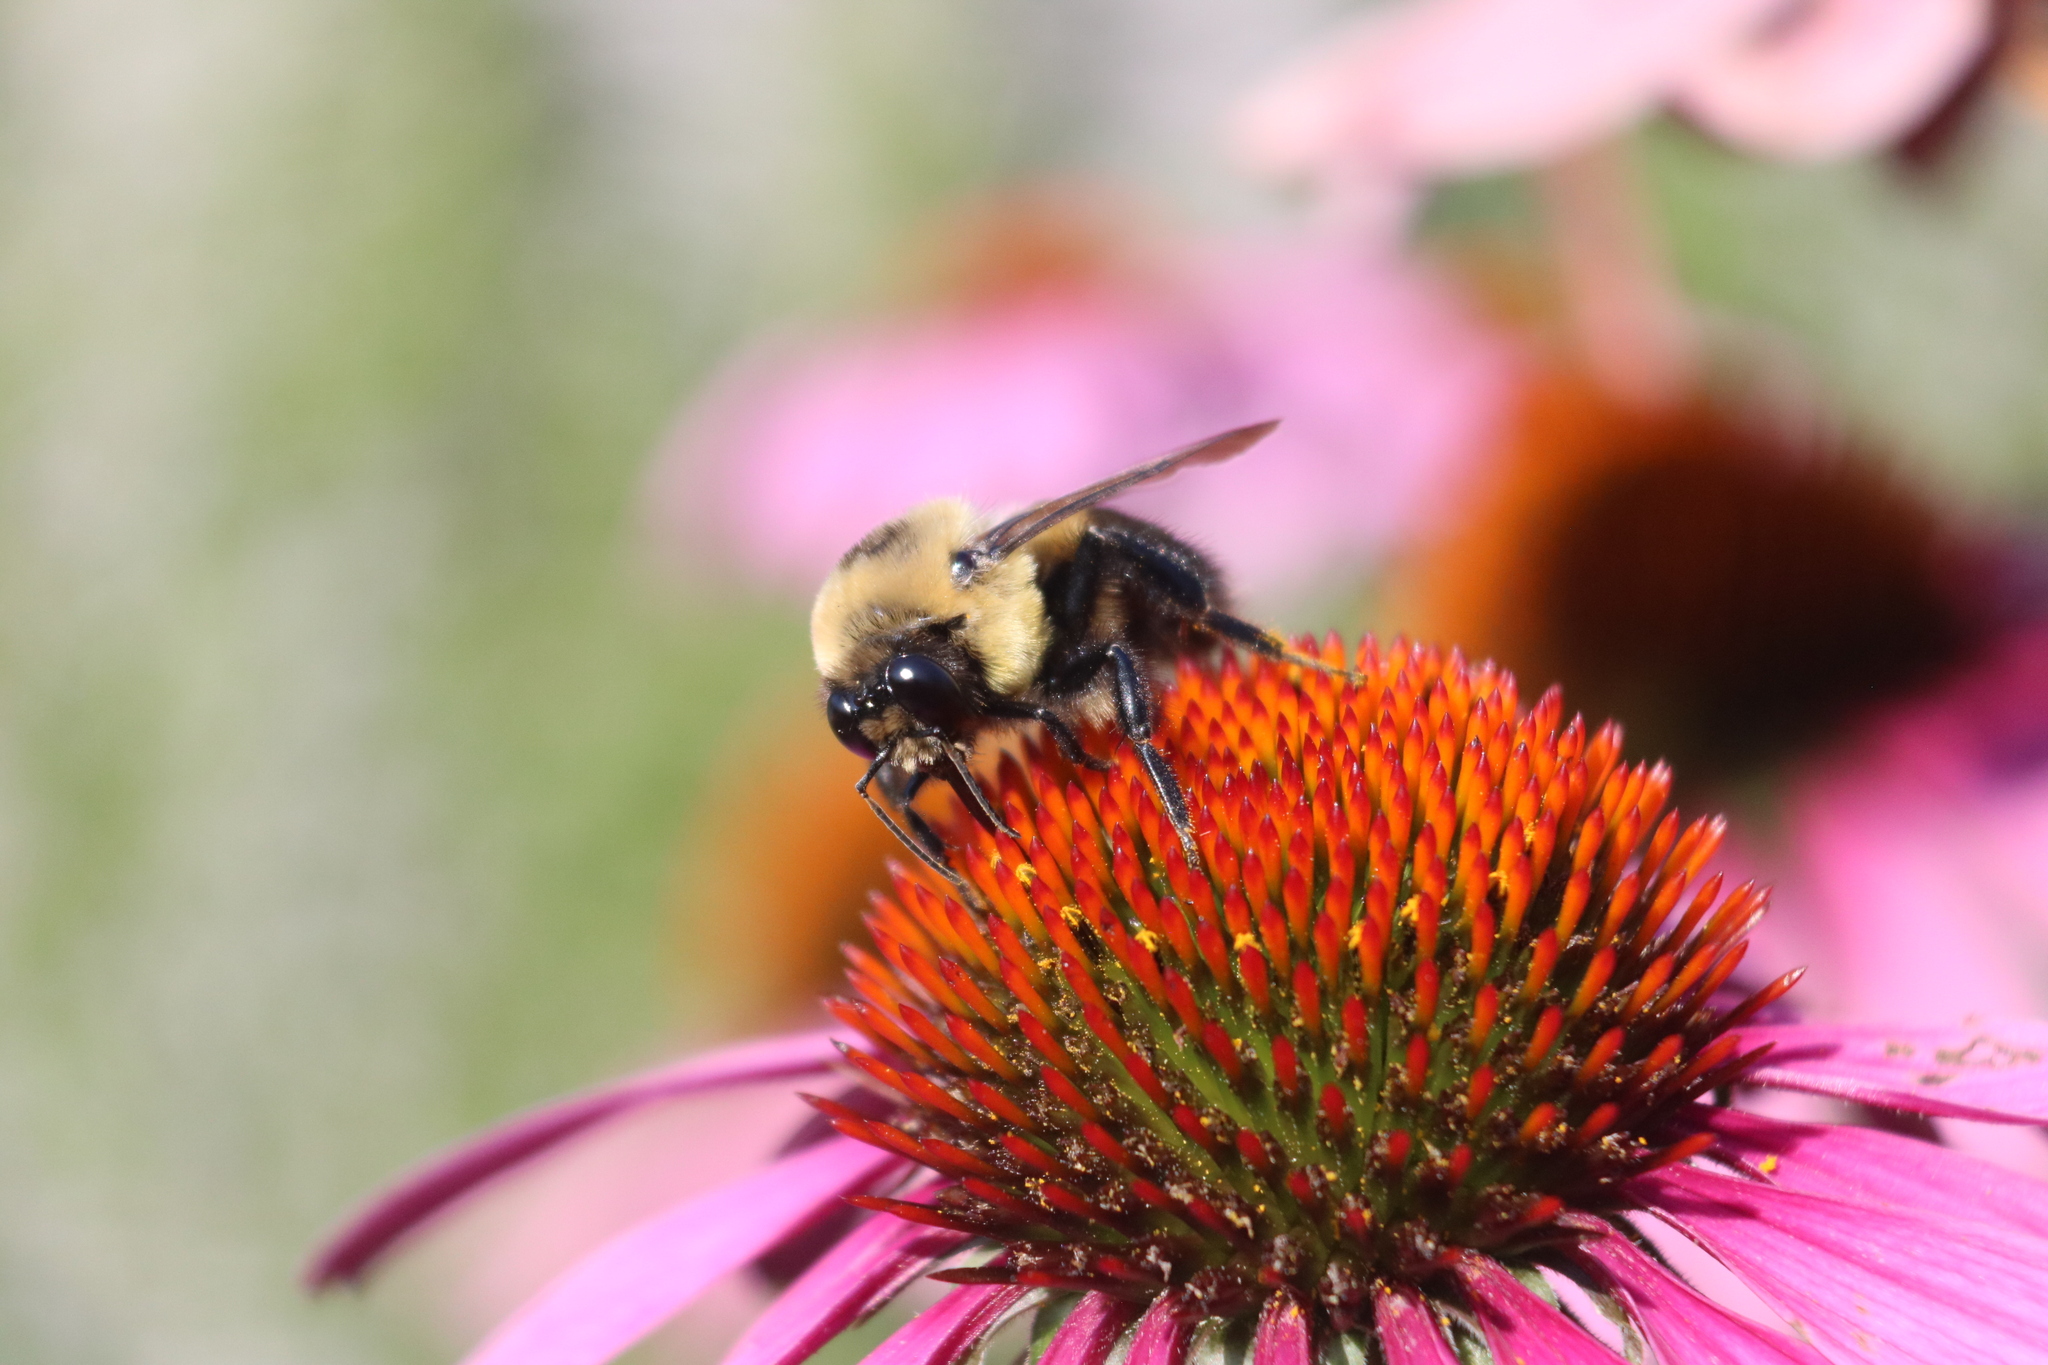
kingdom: Animalia
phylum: Arthropoda
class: Insecta
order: Hymenoptera
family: Apidae
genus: Bombus
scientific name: Bombus griseocollis
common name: Brown-belted bumble bee
